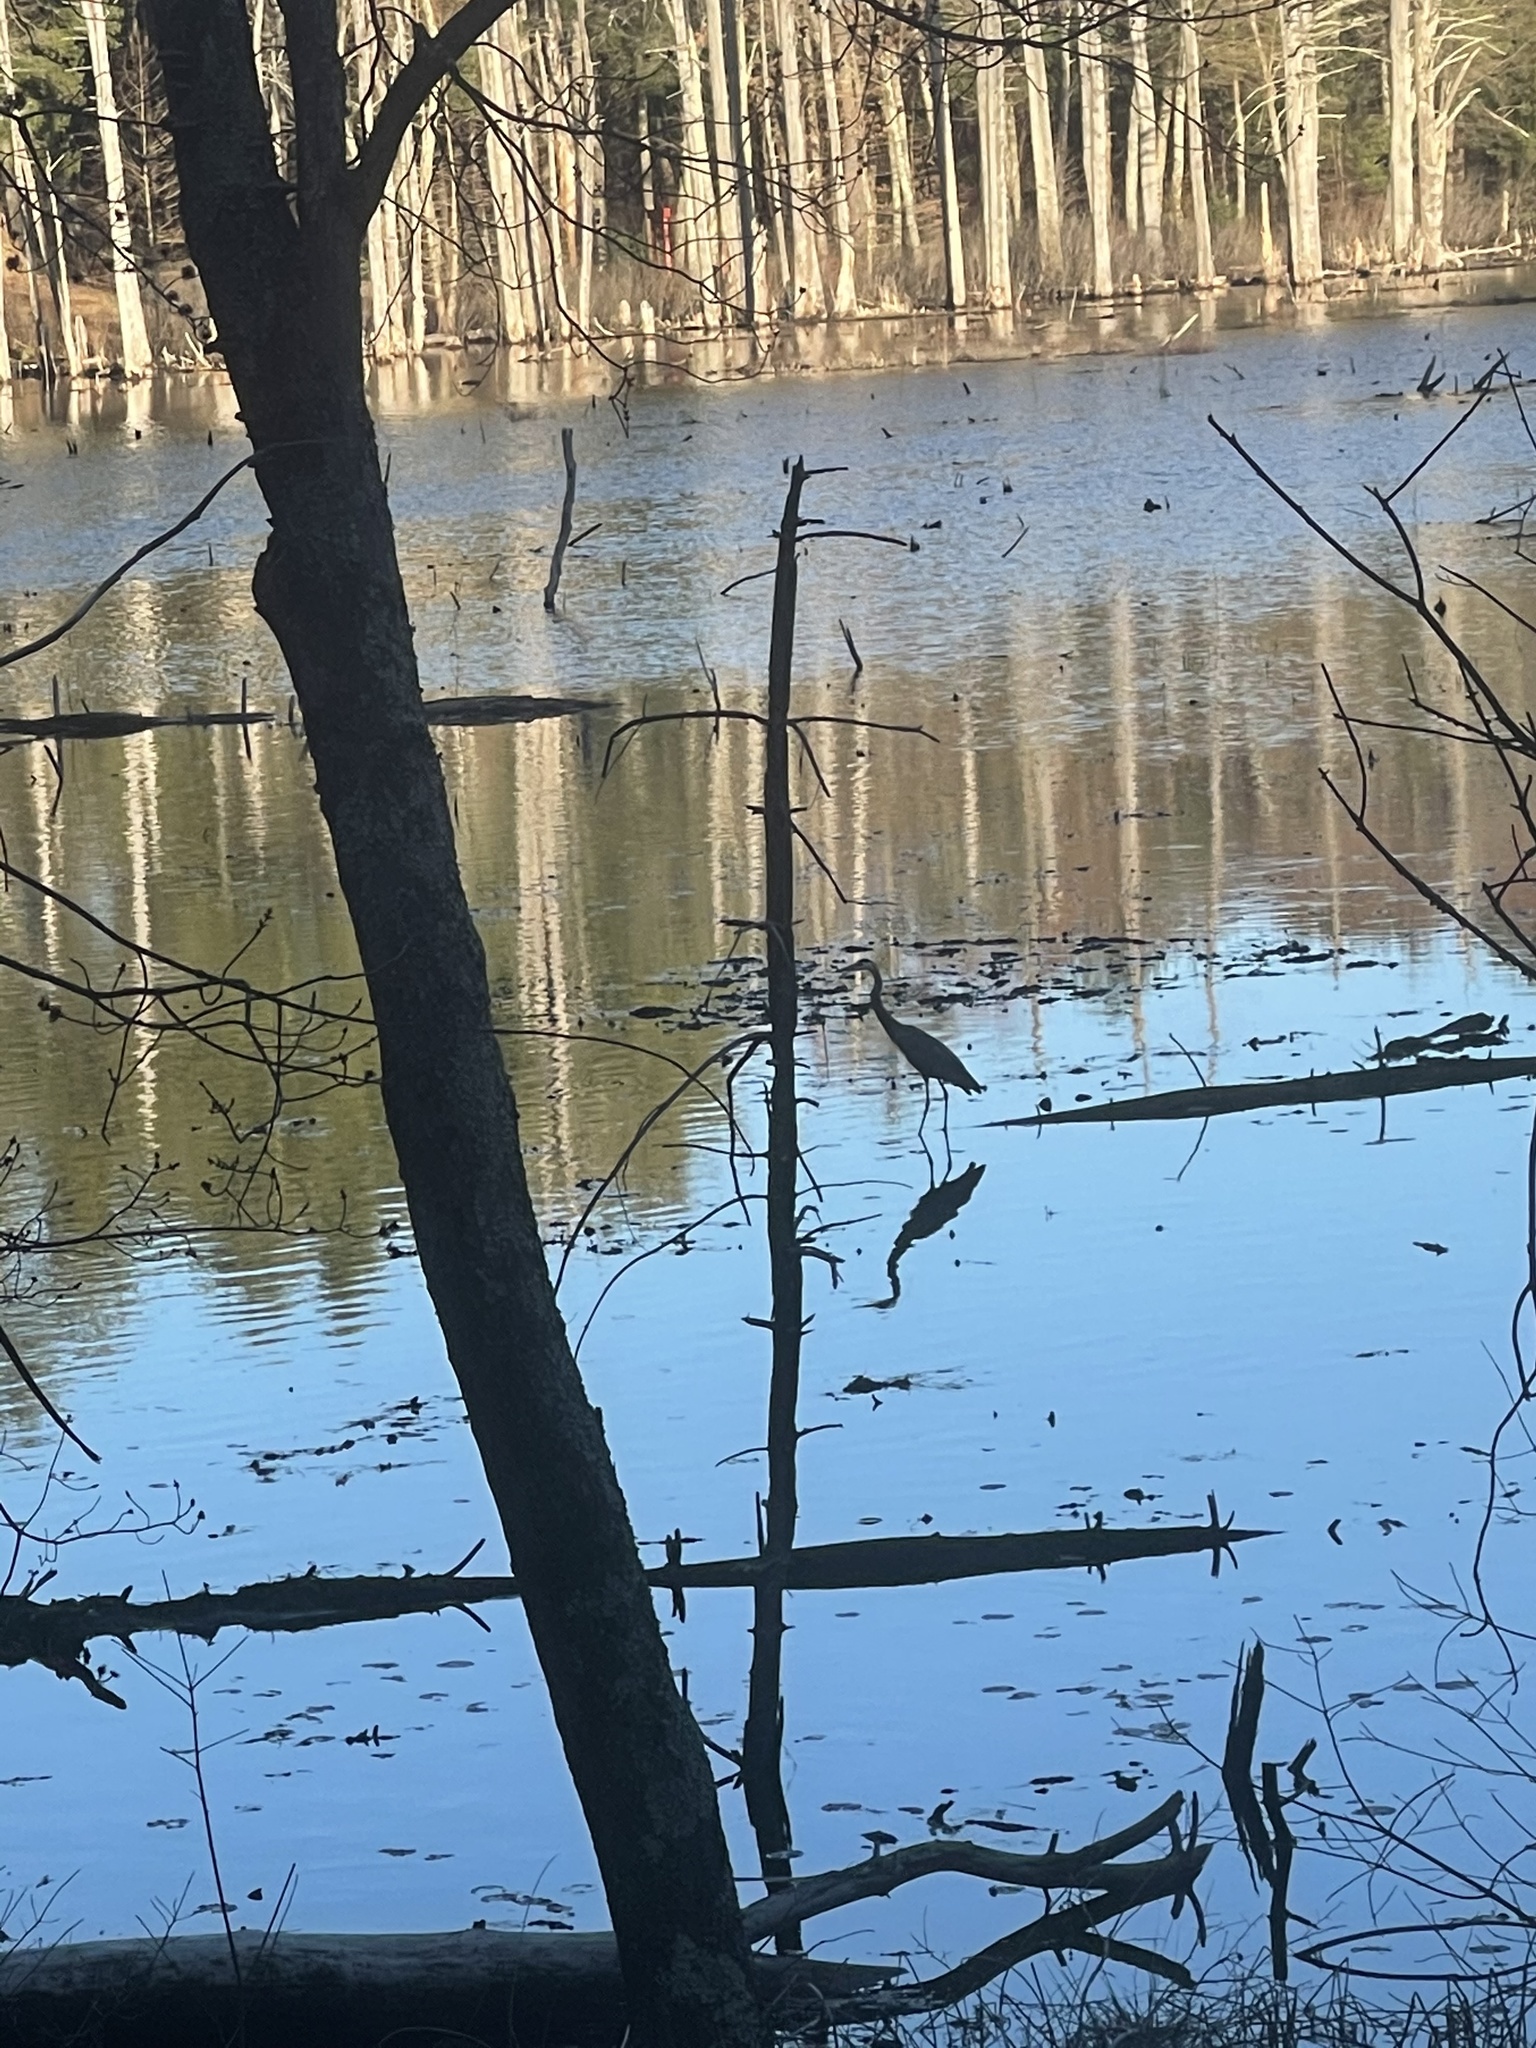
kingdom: Animalia
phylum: Chordata
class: Aves
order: Pelecaniformes
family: Ardeidae
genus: Ardea
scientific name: Ardea herodias
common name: Great blue heron
